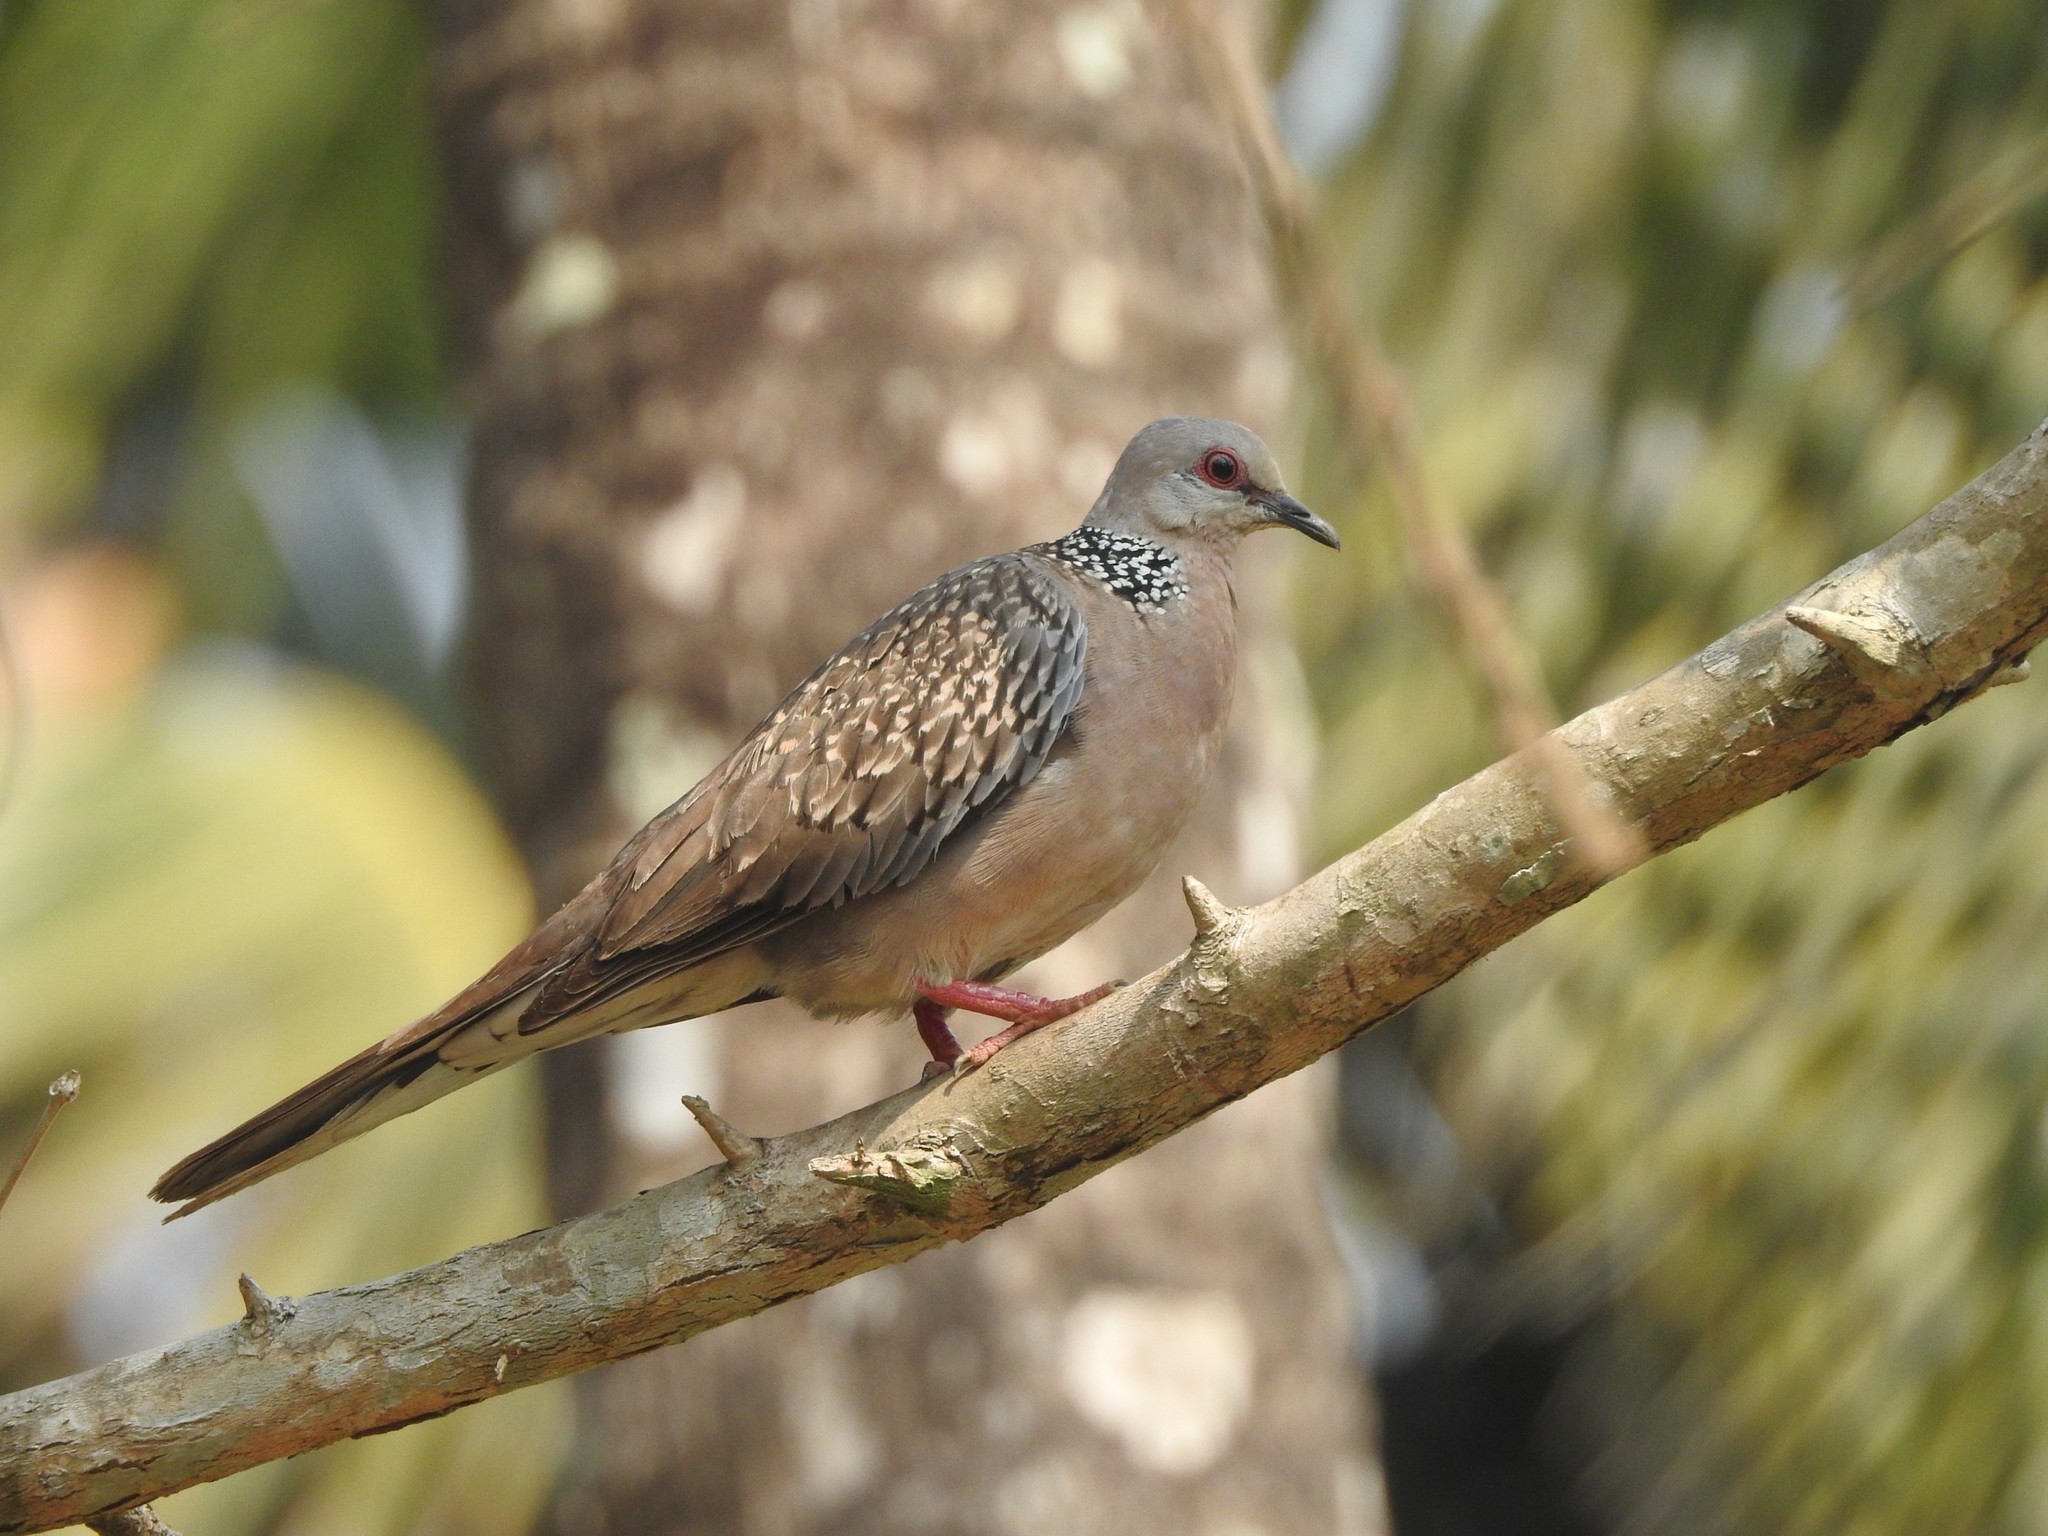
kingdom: Animalia
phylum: Chordata
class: Aves
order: Columbiformes
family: Columbidae
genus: Spilopelia
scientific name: Spilopelia chinensis
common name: Spotted dove
